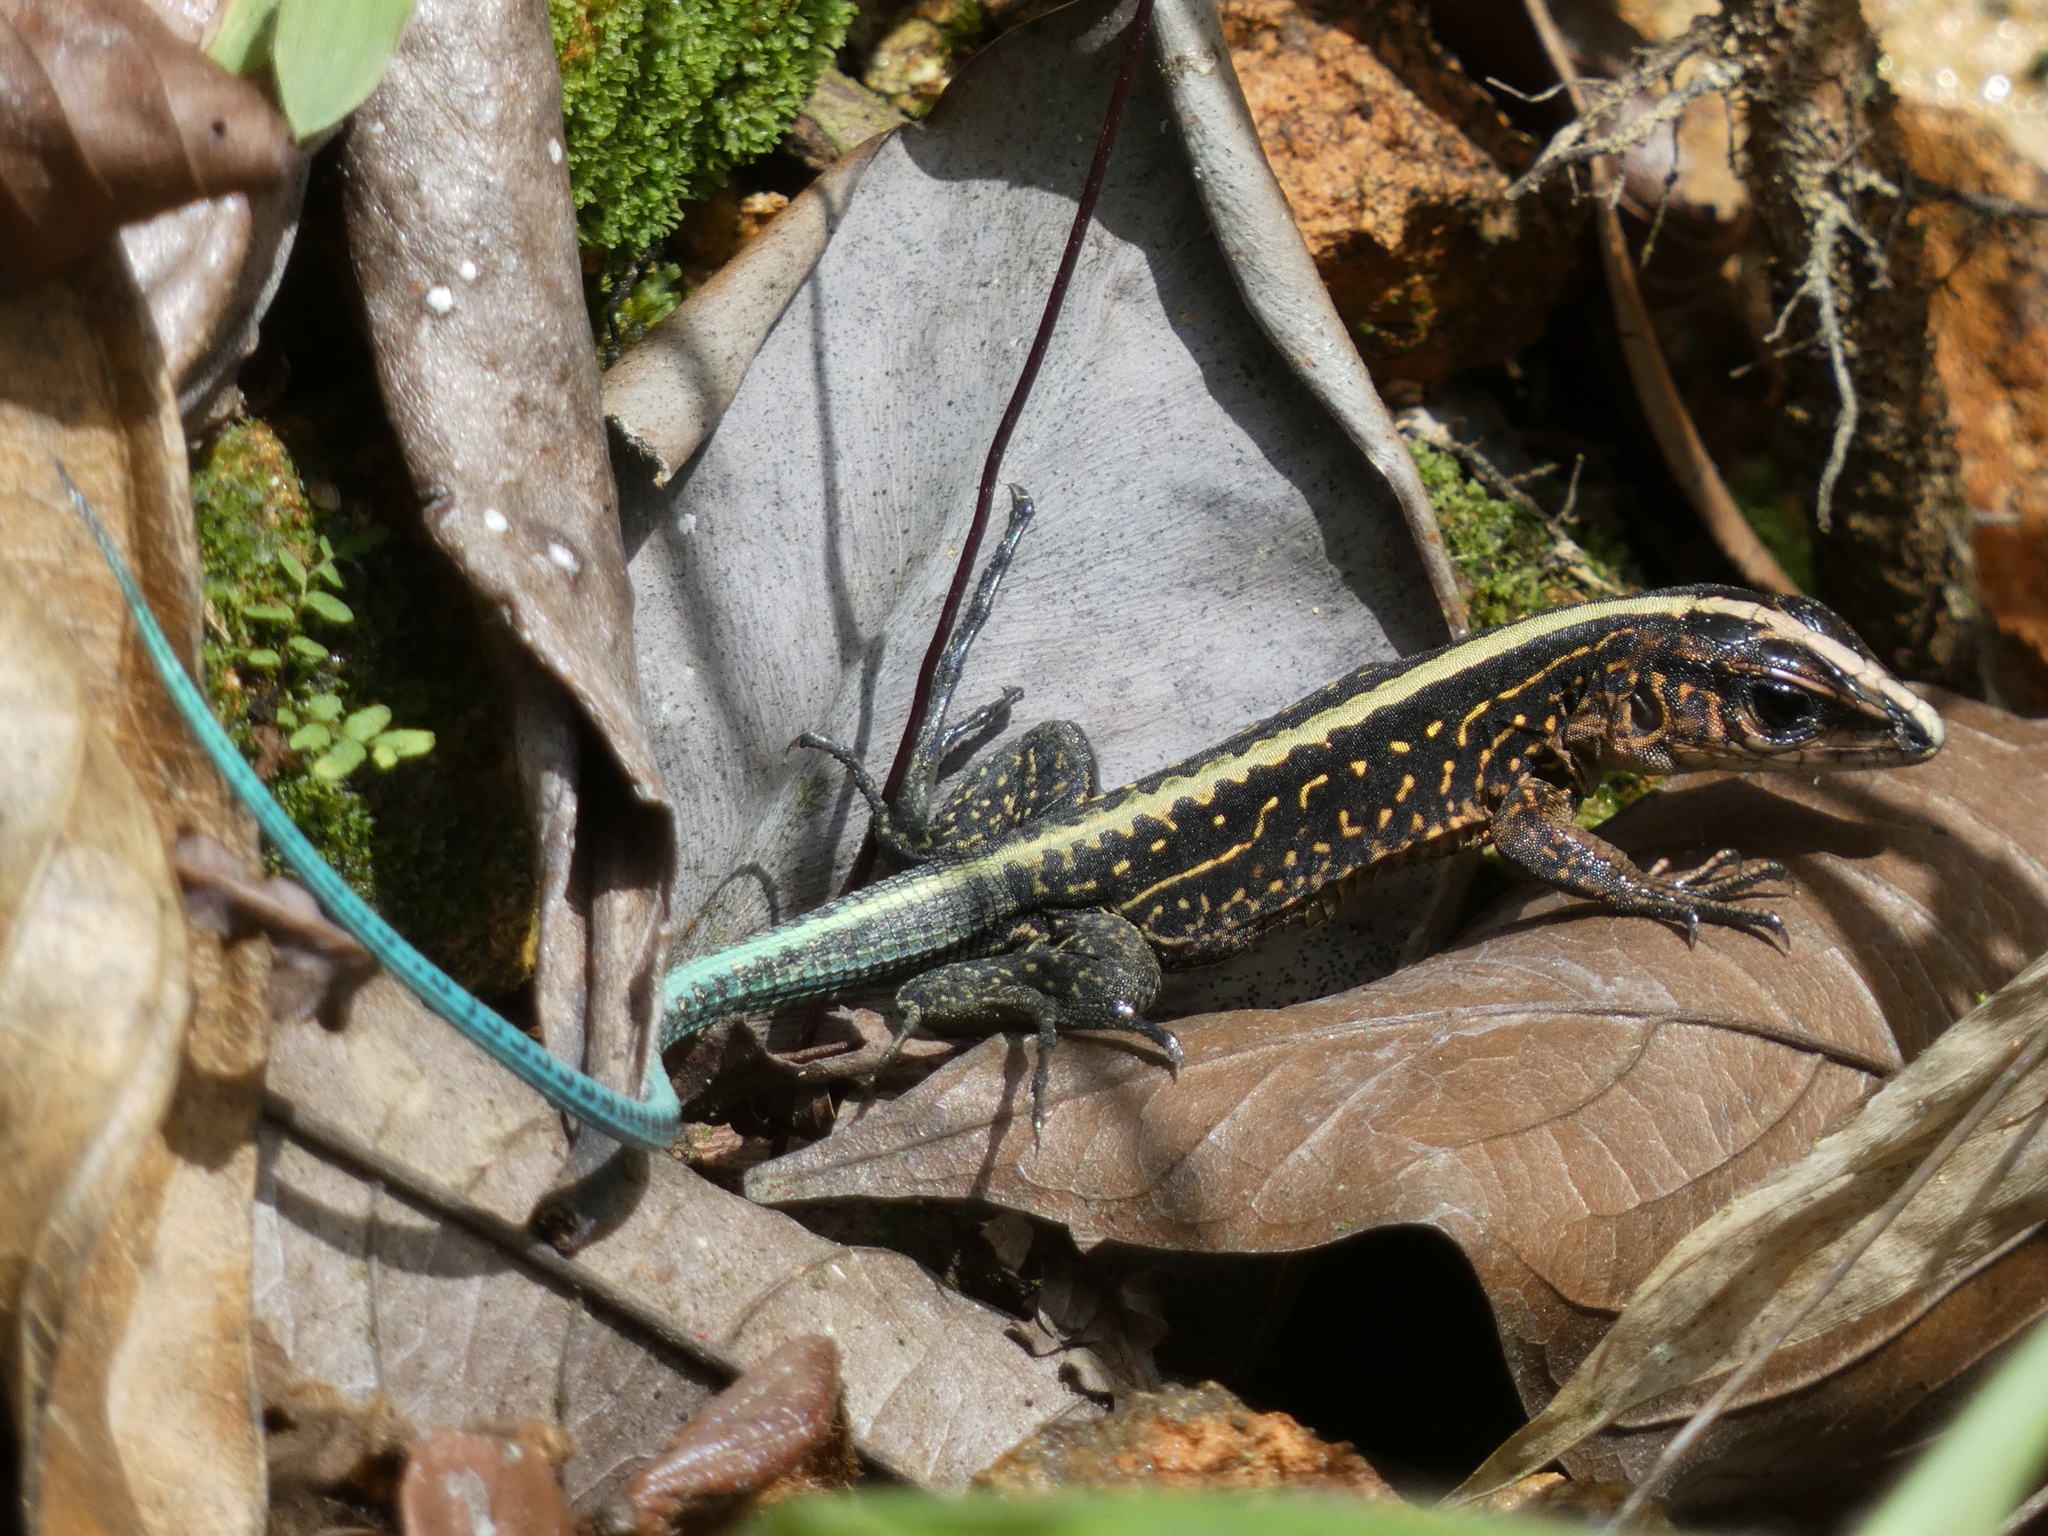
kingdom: Animalia
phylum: Chordata
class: Squamata
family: Teiidae
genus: Holcosus
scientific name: Holcosus festivus
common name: Middle american ameiva
